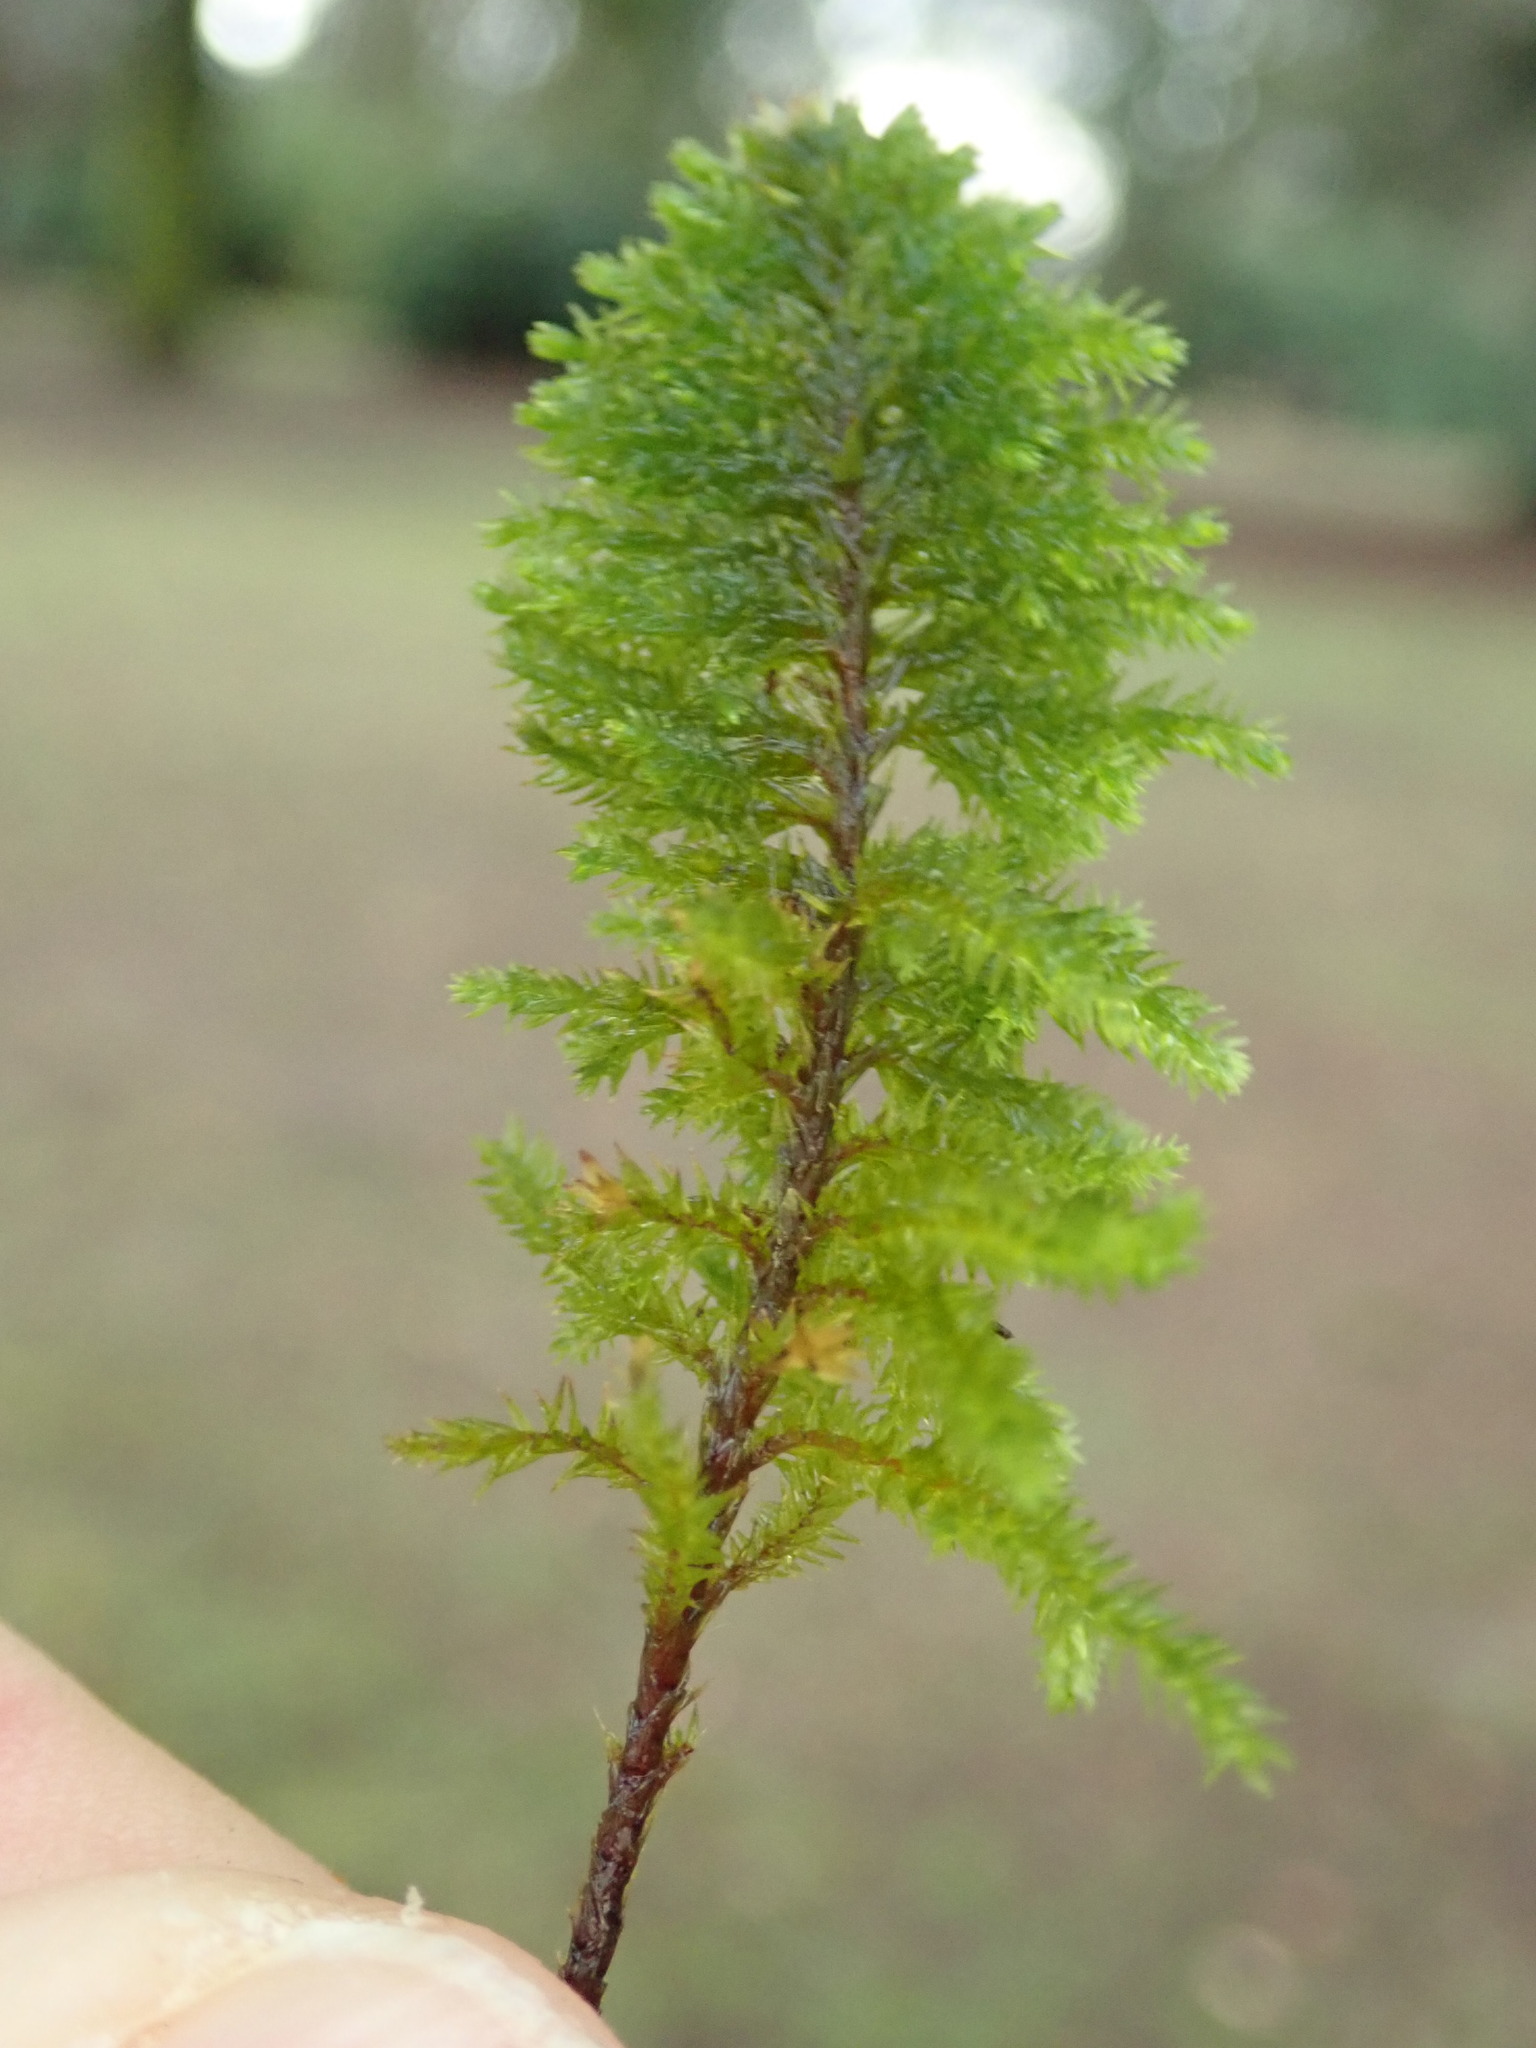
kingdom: Plantae
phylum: Bryophyta
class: Bryopsida
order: Hypnales
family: Cryphaeaceae
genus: Dendroalsia
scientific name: Dendroalsia abietina
